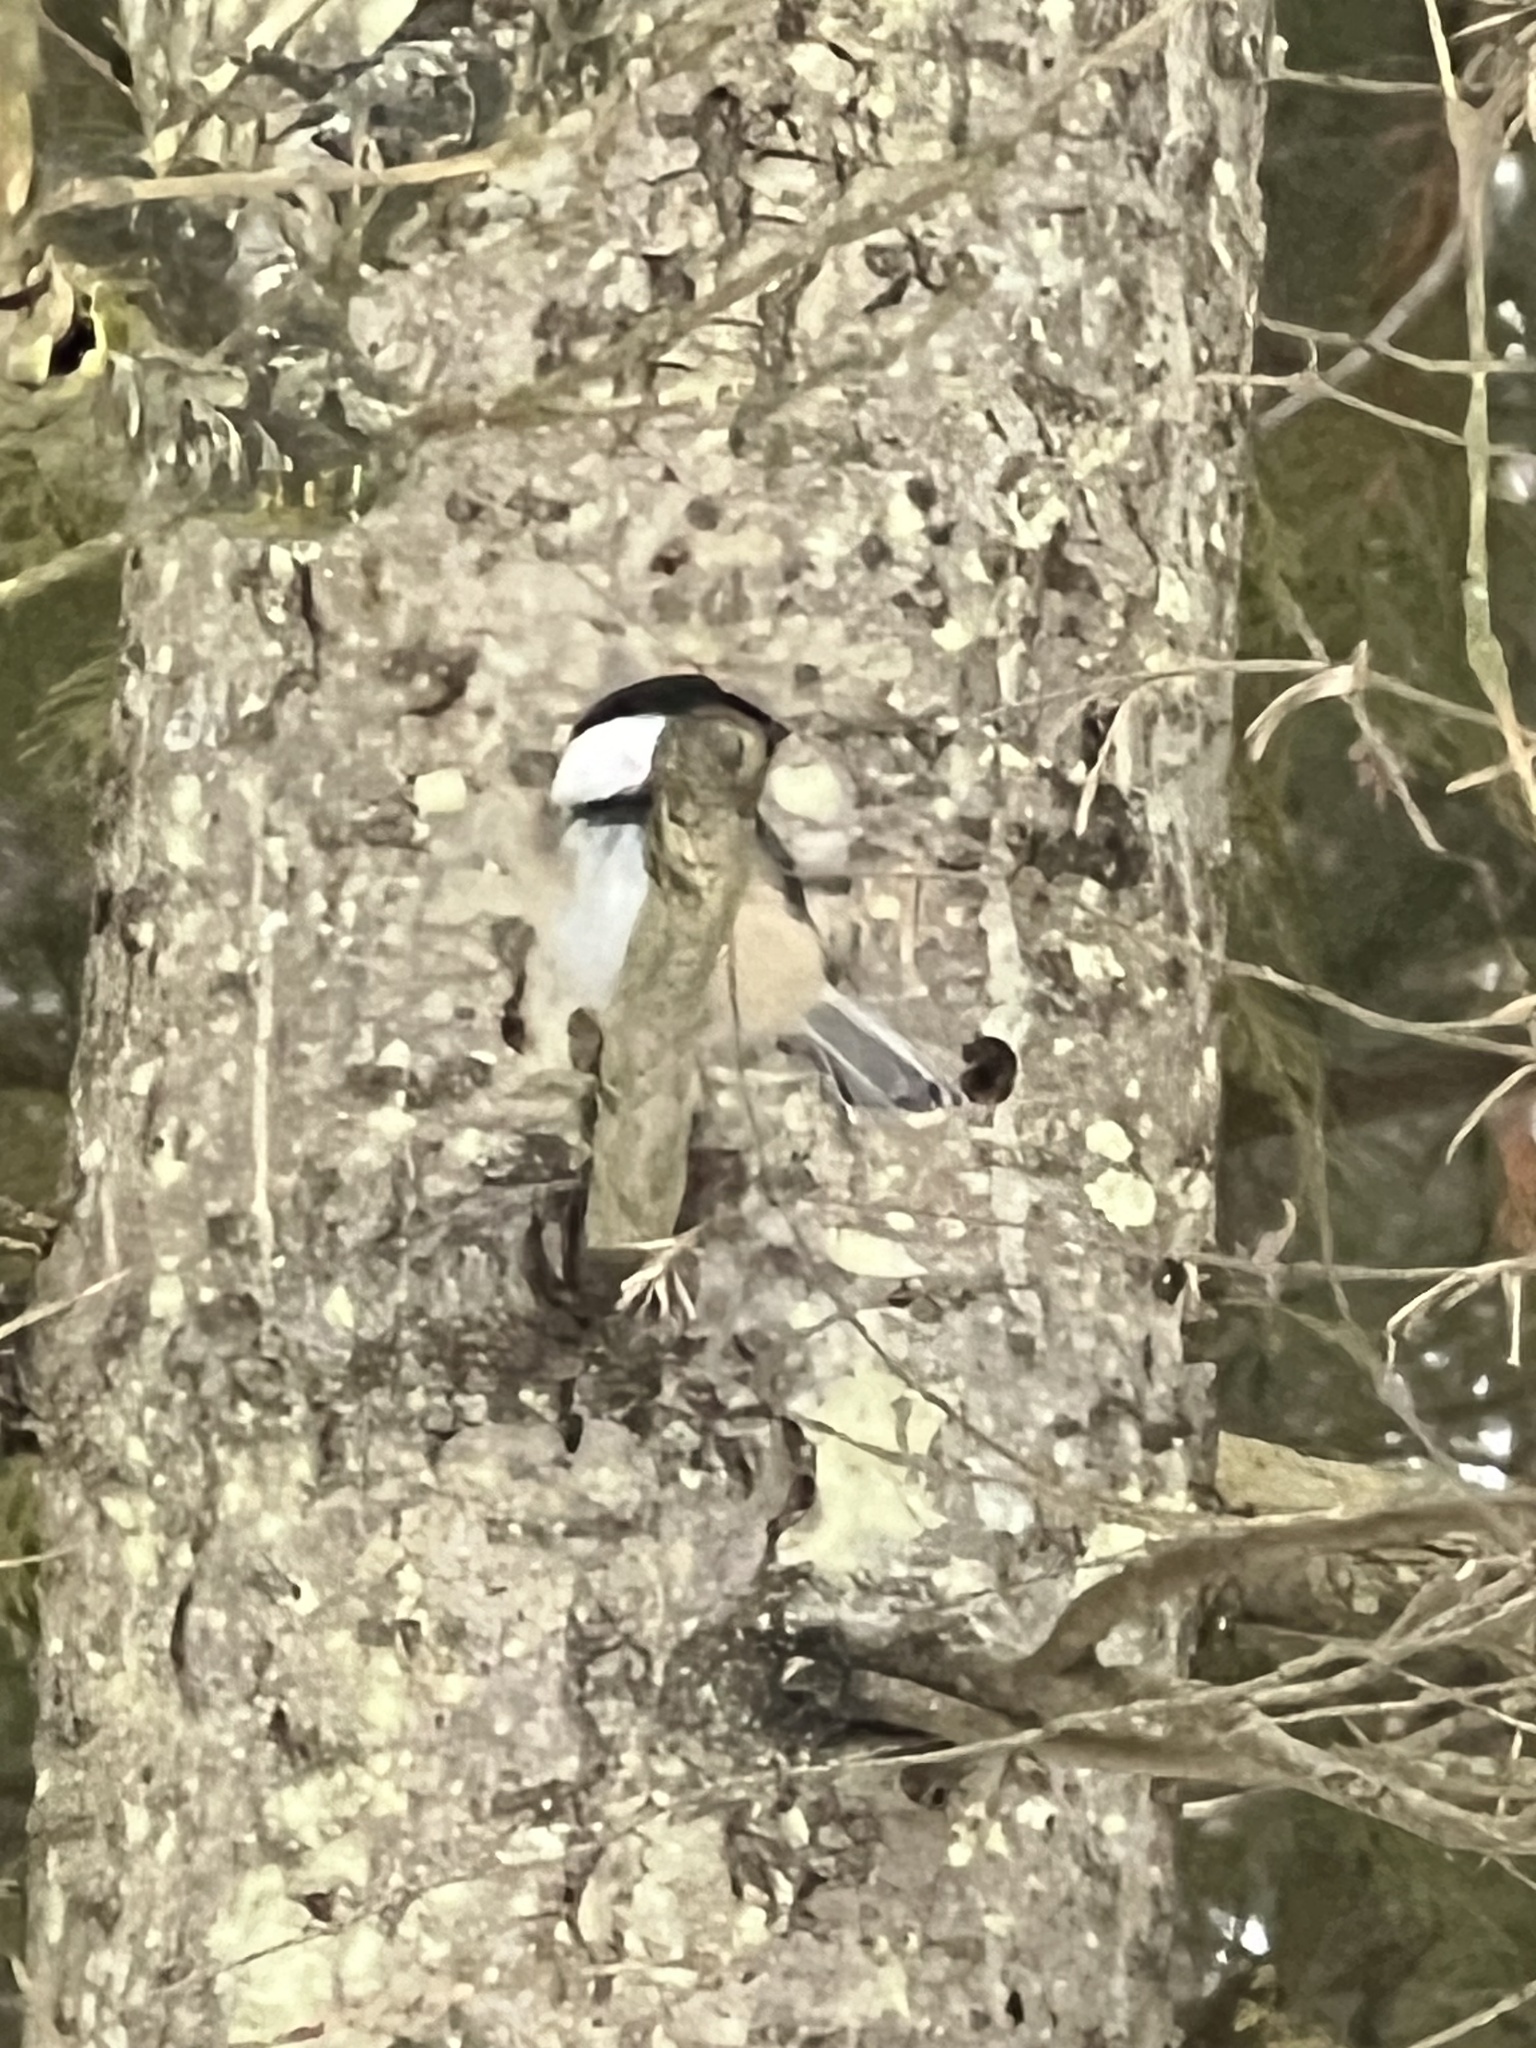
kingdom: Animalia
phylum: Chordata
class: Aves
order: Passeriformes
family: Paridae
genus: Poecile
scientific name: Poecile atricapillus
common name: Black-capped chickadee
